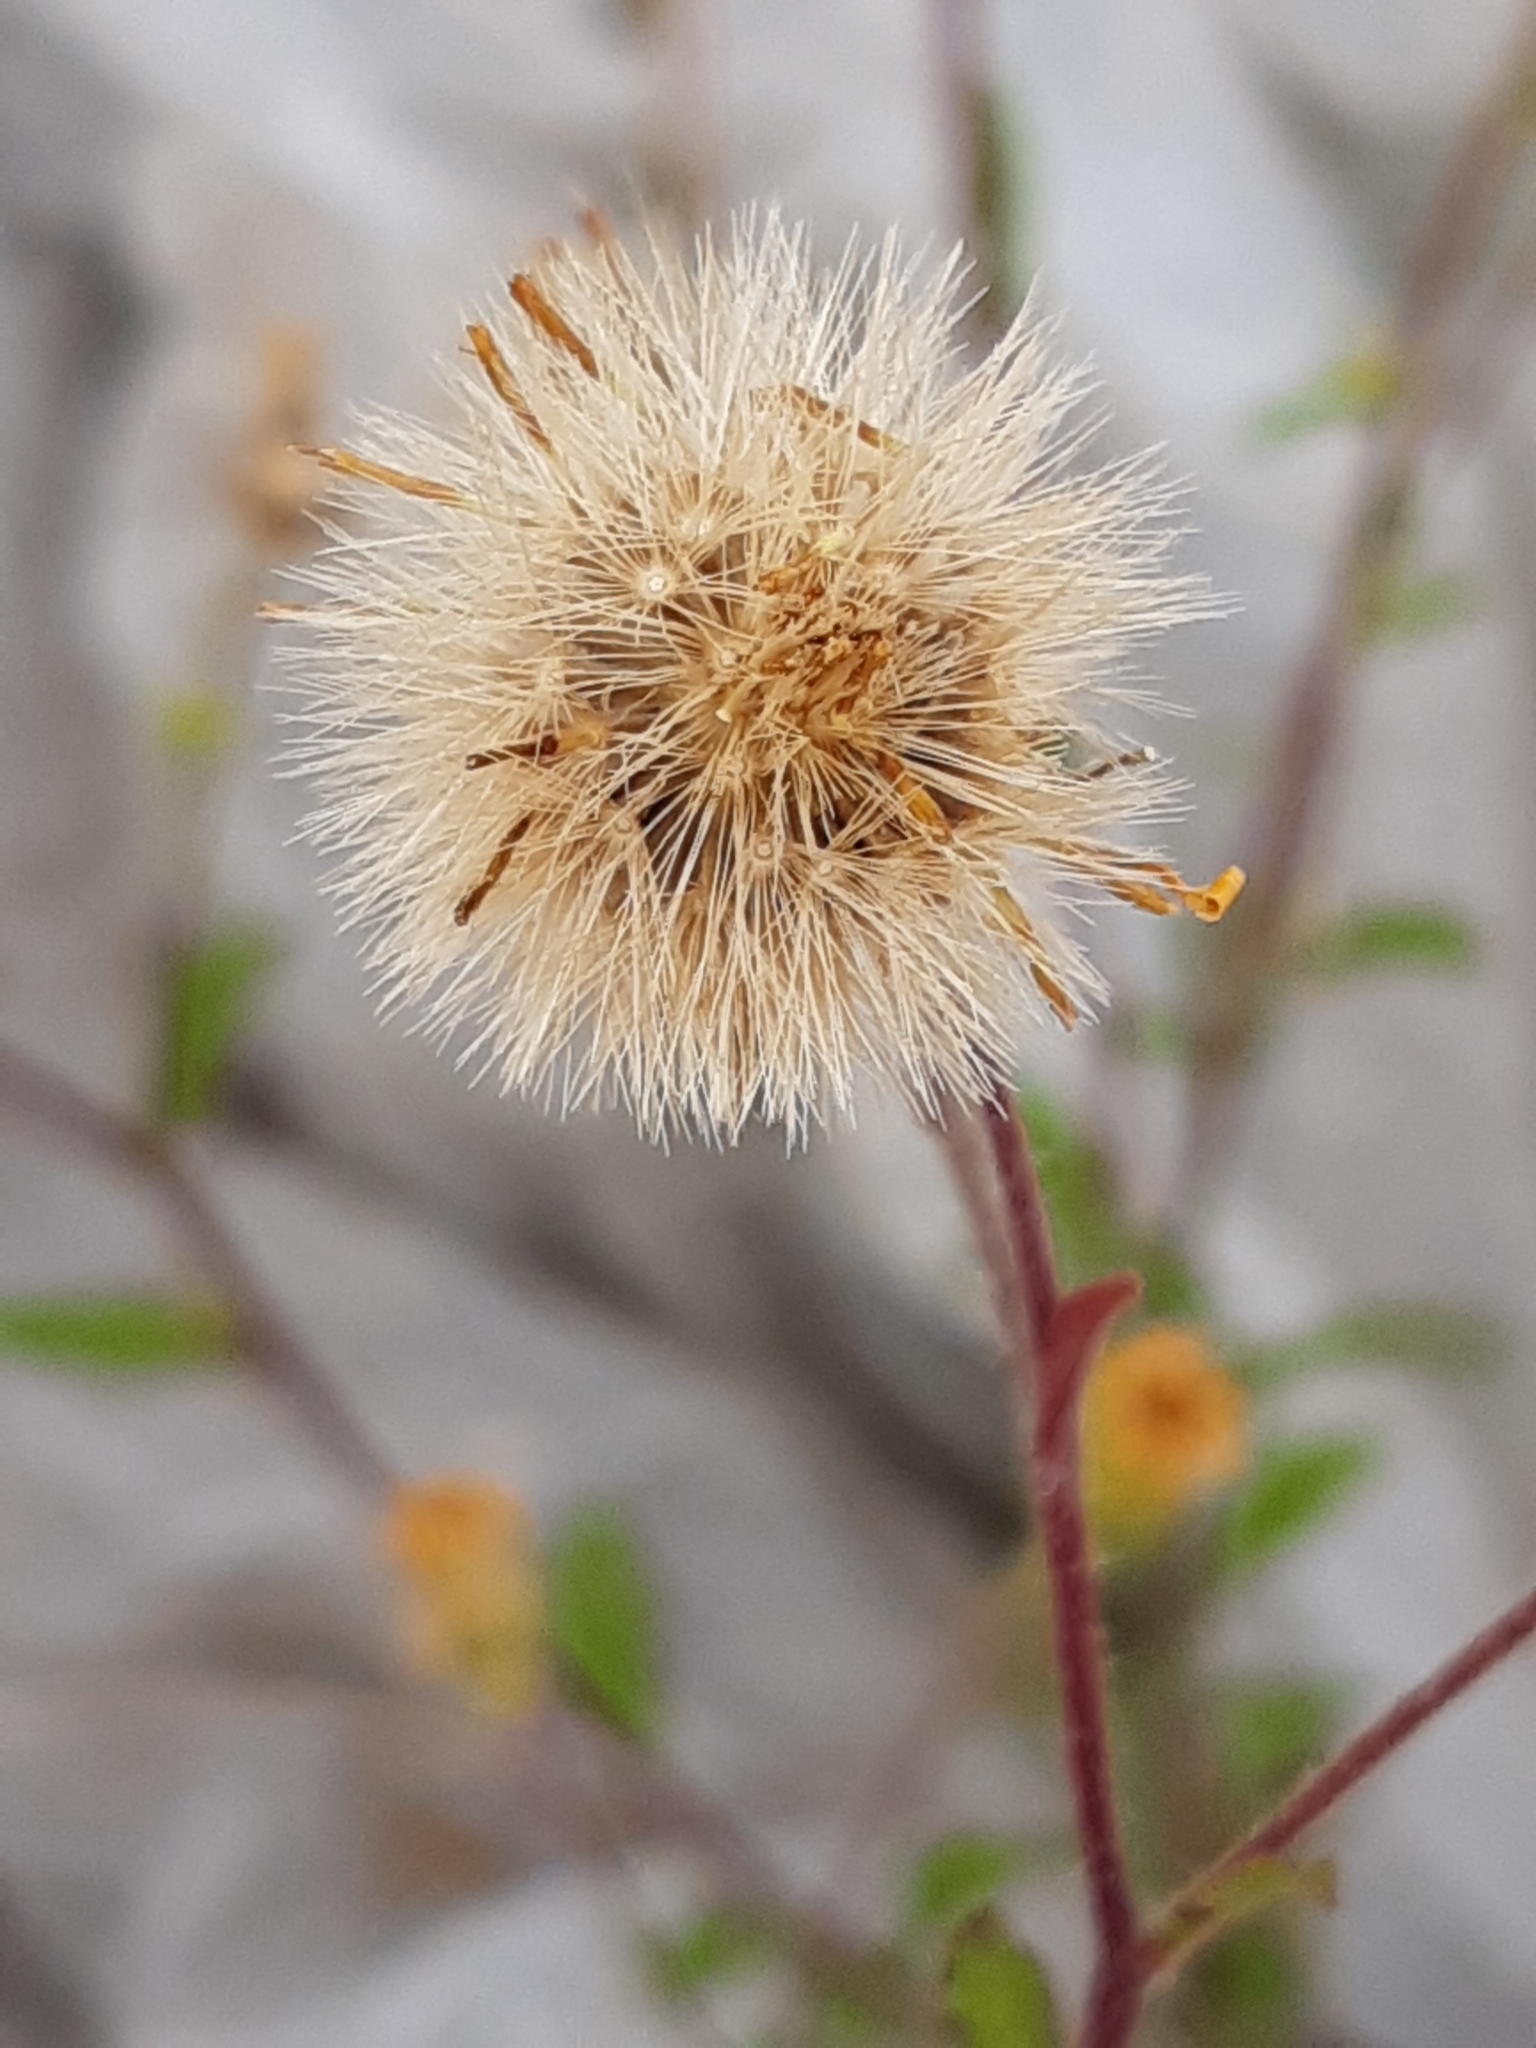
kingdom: Plantae
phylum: Tracheophyta
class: Magnoliopsida
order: Asterales
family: Asteraceae
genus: Heterotheca
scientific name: Heterotheca inuloides
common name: False arnica
